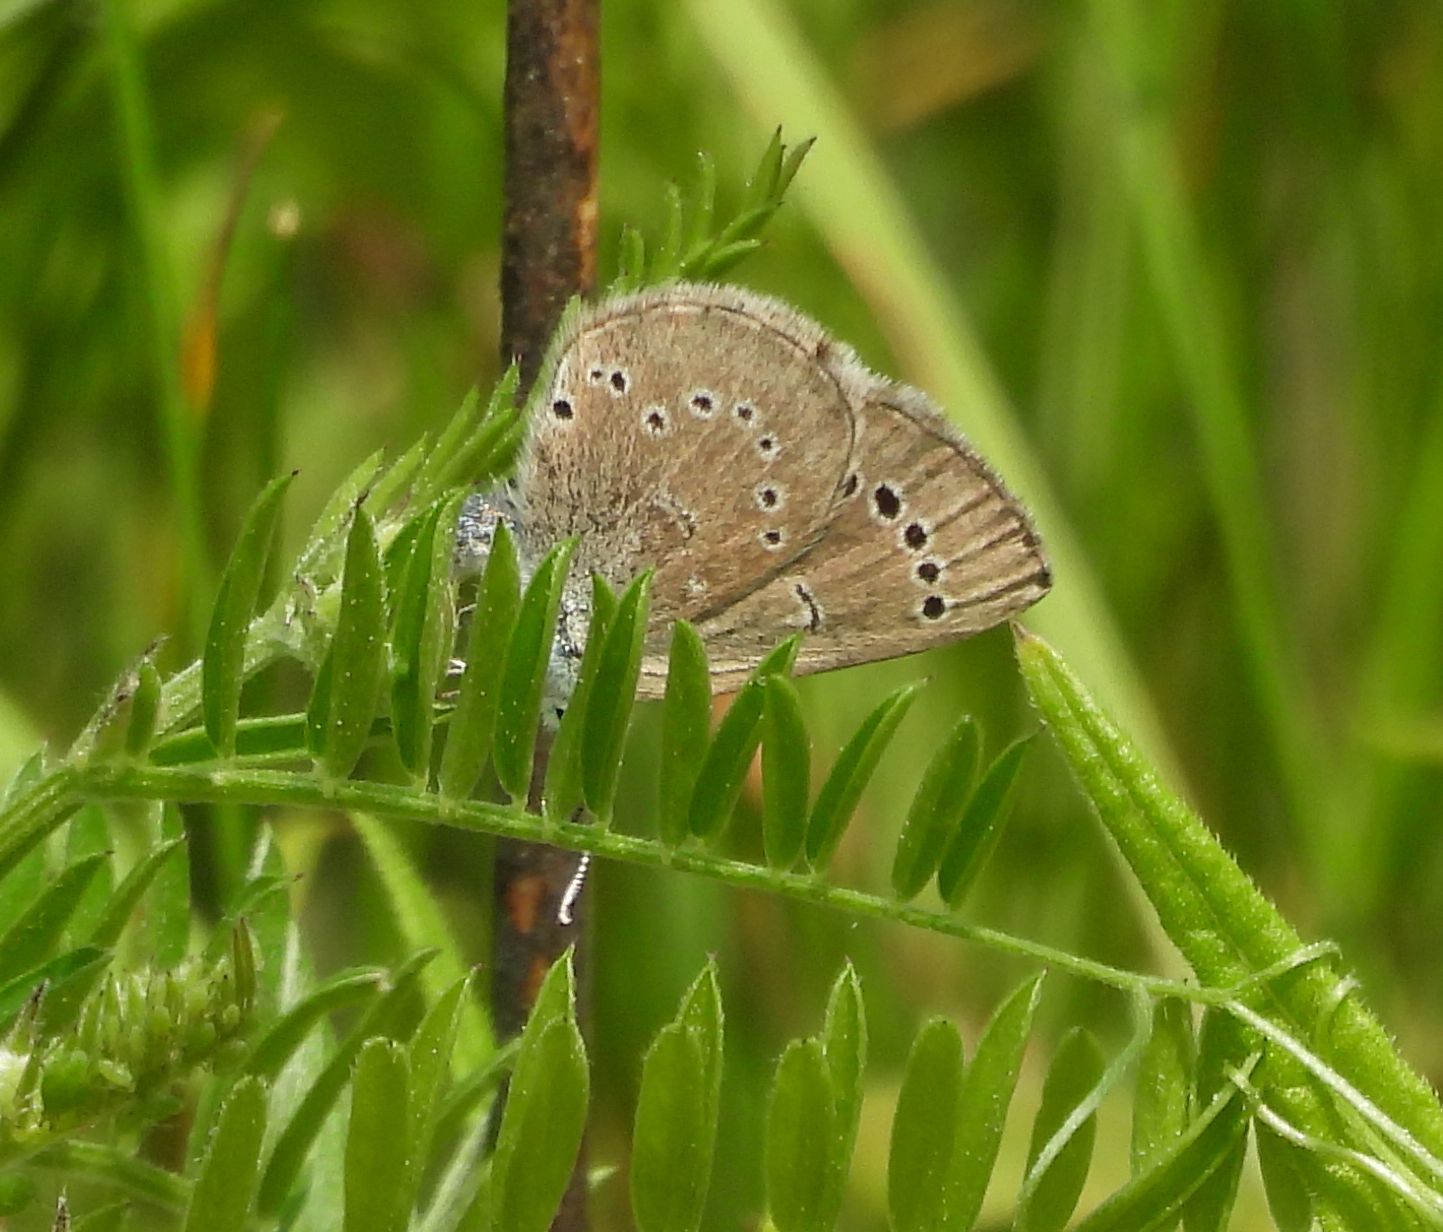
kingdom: Animalia
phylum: Arthropoda
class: Insecta
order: Lepidoptera
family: Lycaenidae
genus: Glaucopsyche
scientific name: Glaucopsyche lygdamus
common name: Silvery blue
